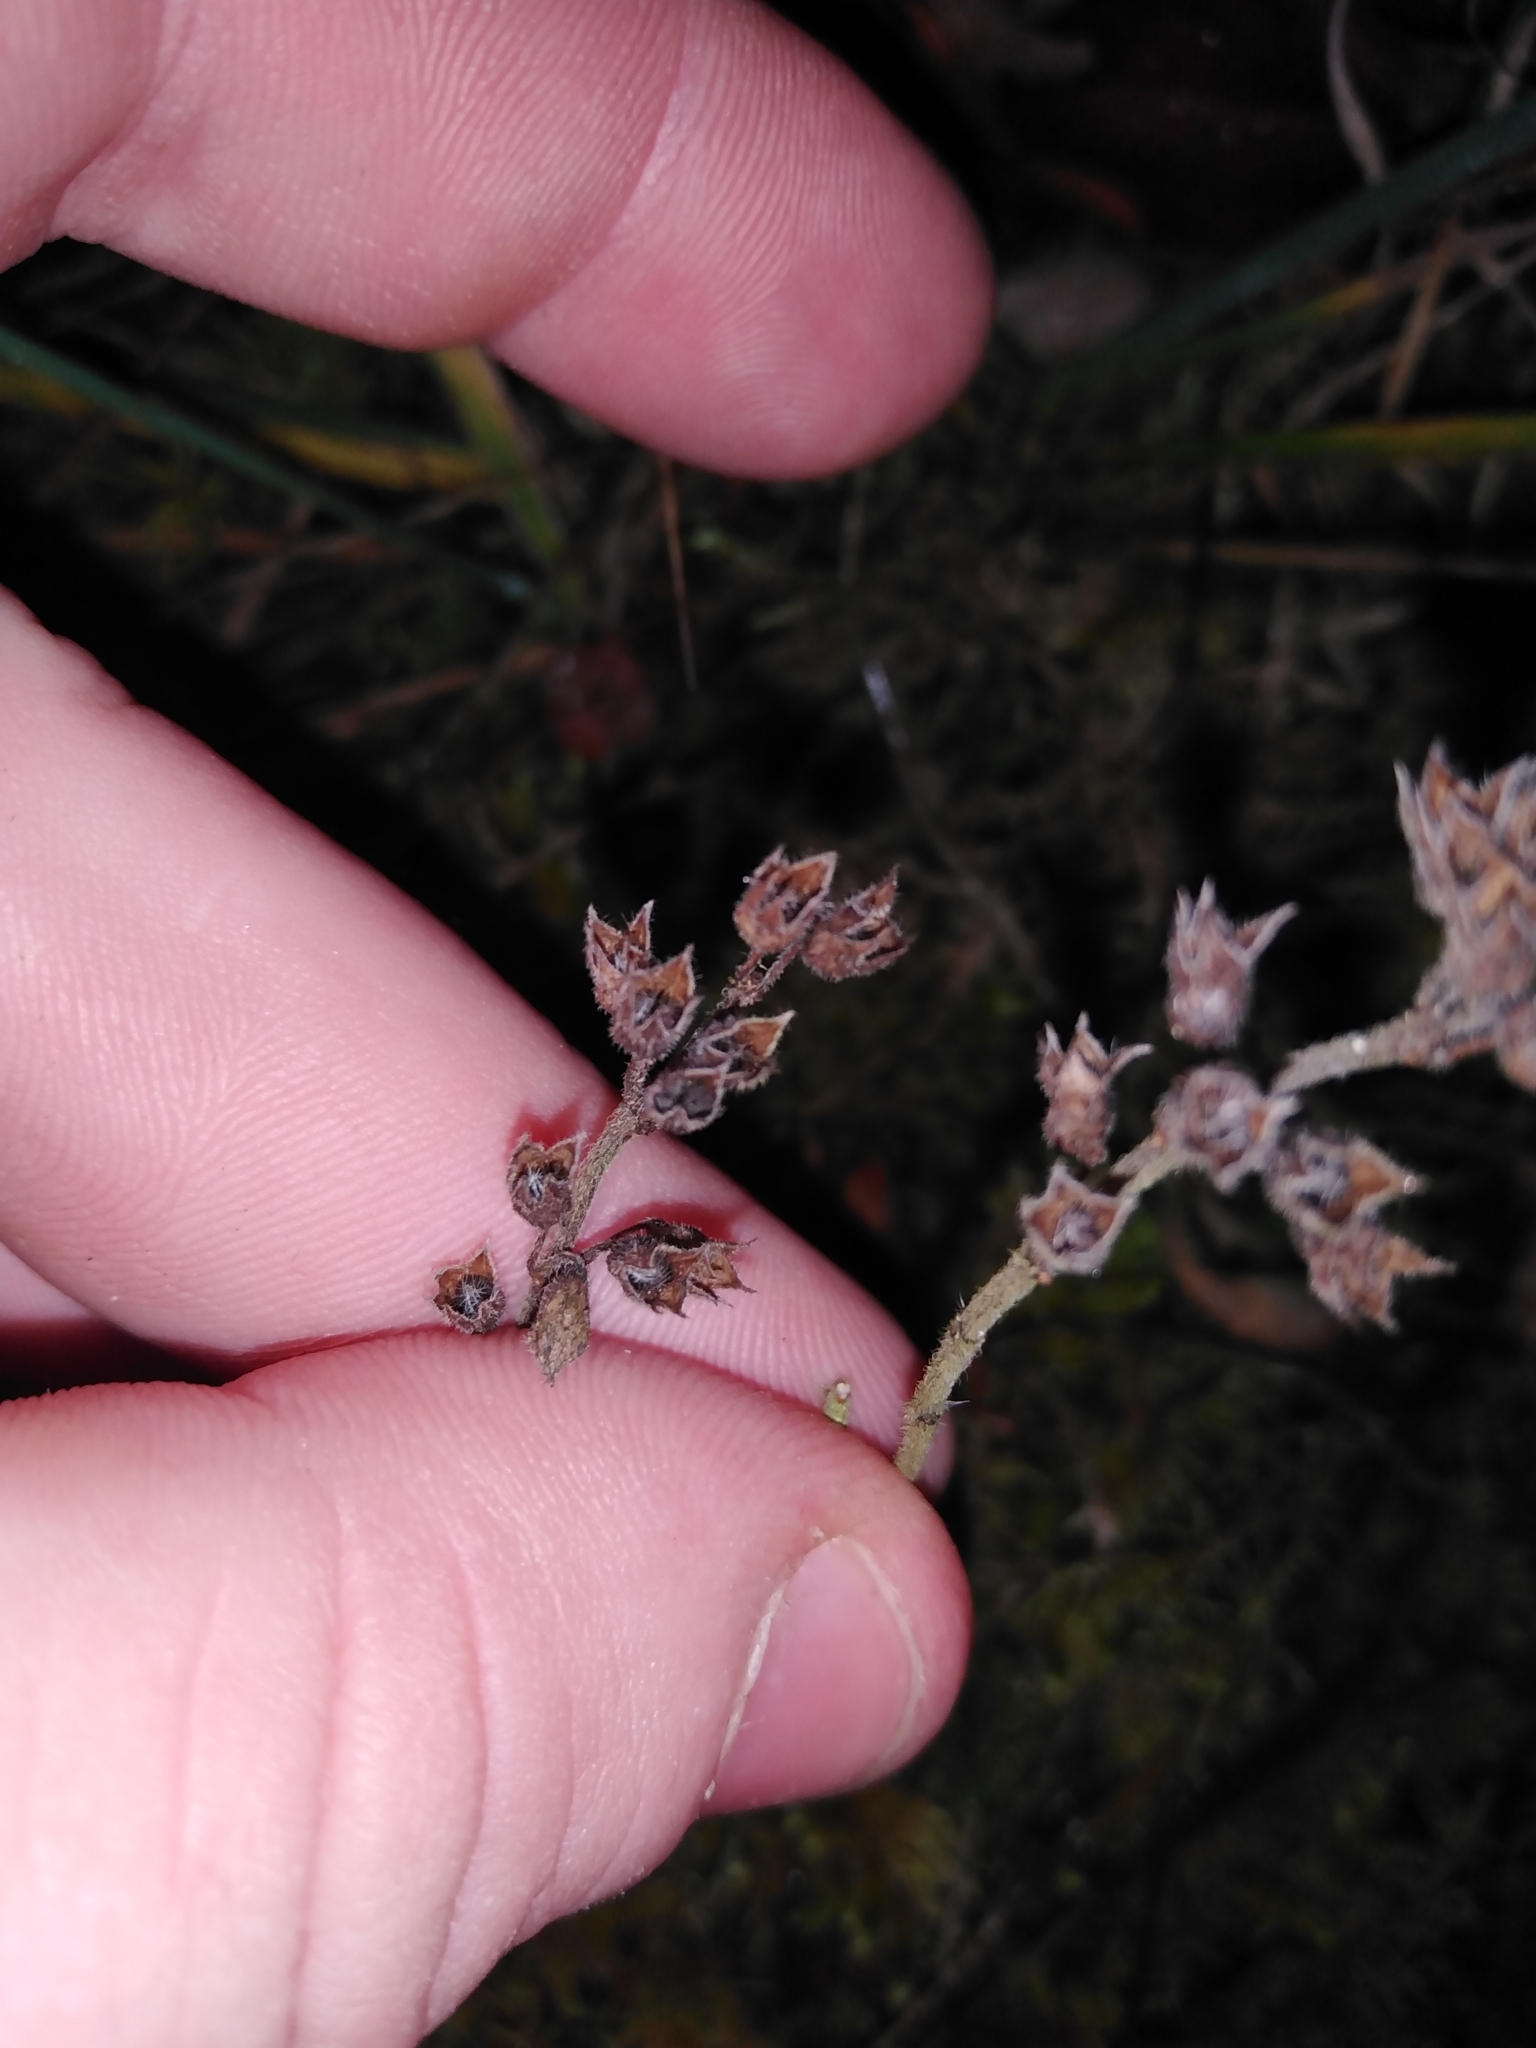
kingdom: Plantae
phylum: Tracheophyta
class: Magnoliopsida
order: Lamiales
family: Lamiaceae
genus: Teucrium
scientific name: Teucrium chamaedrys
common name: Wall germander
